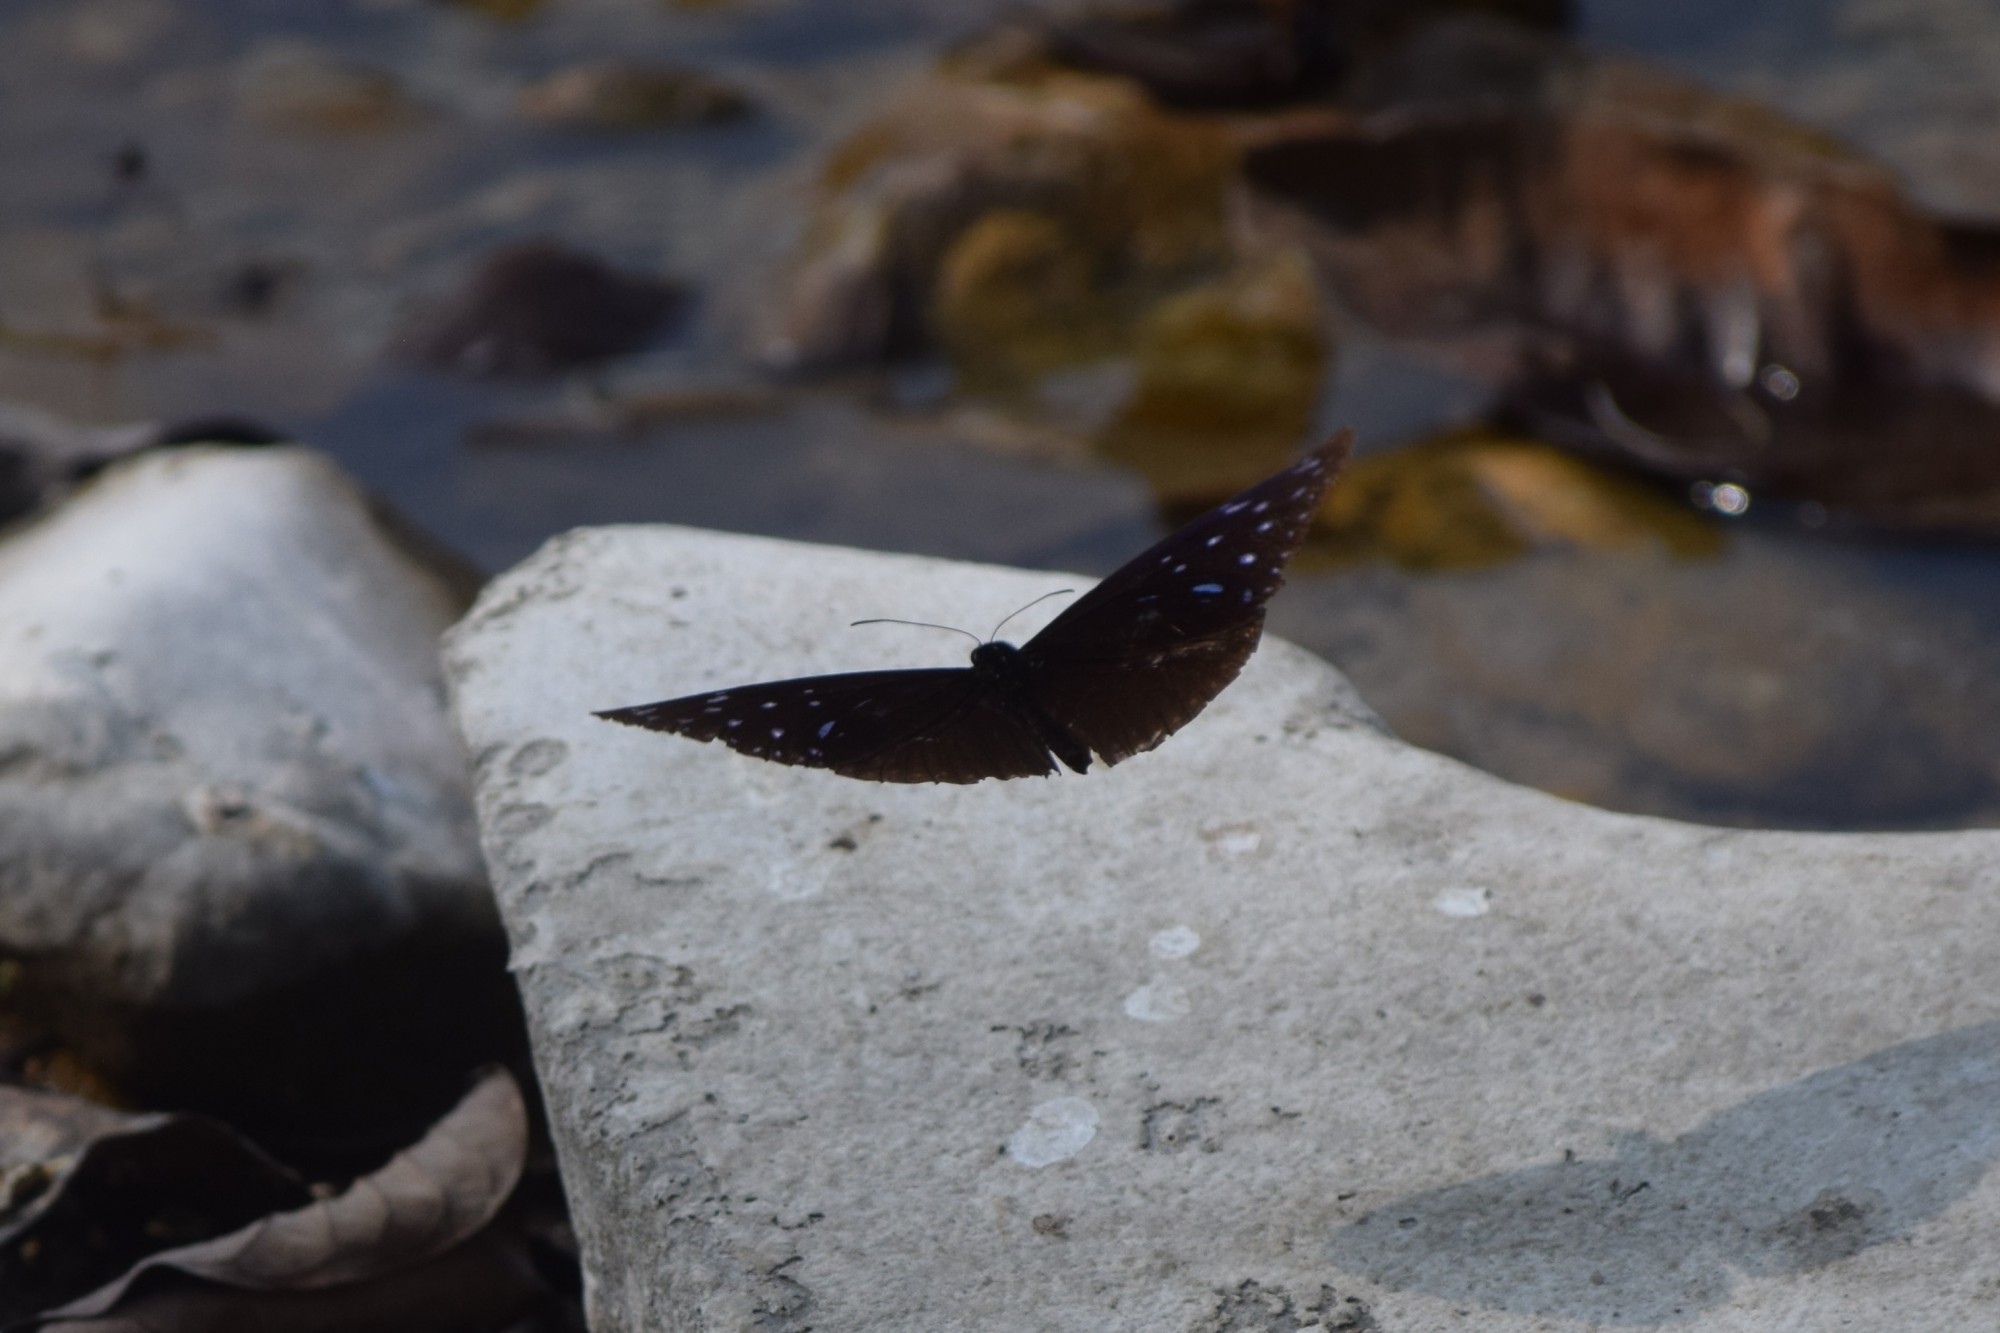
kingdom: Animalia
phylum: Arthropoda
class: Insecta
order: Lepidoptera
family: Nymphalidae
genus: Euploea
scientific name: Euploea mulciber
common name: Striped blue crow butterfly
